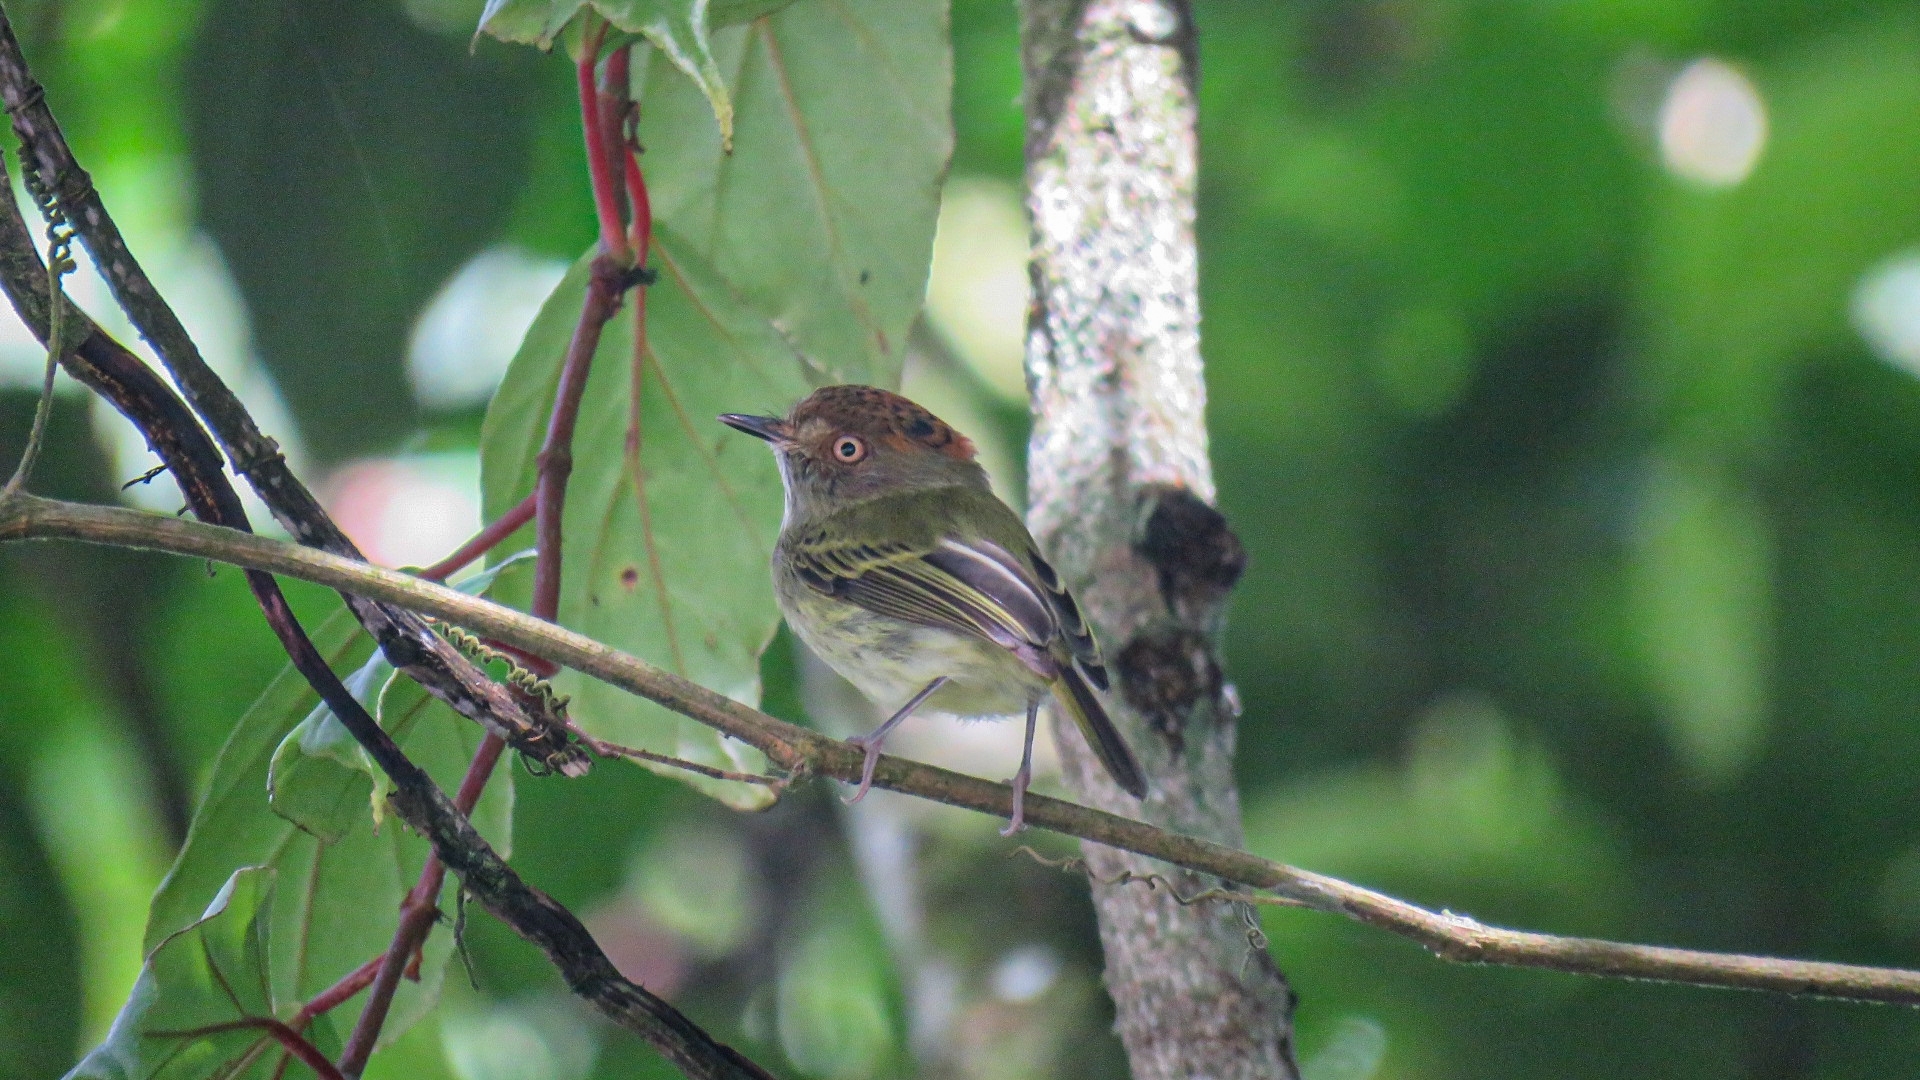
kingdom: Animalia
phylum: Chordata
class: Aves
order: Passeriformes
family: Tyrannidae
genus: Lophotriccus
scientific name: Lophotriccus pileatus
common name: Scale-crested pygmy-tyrant
